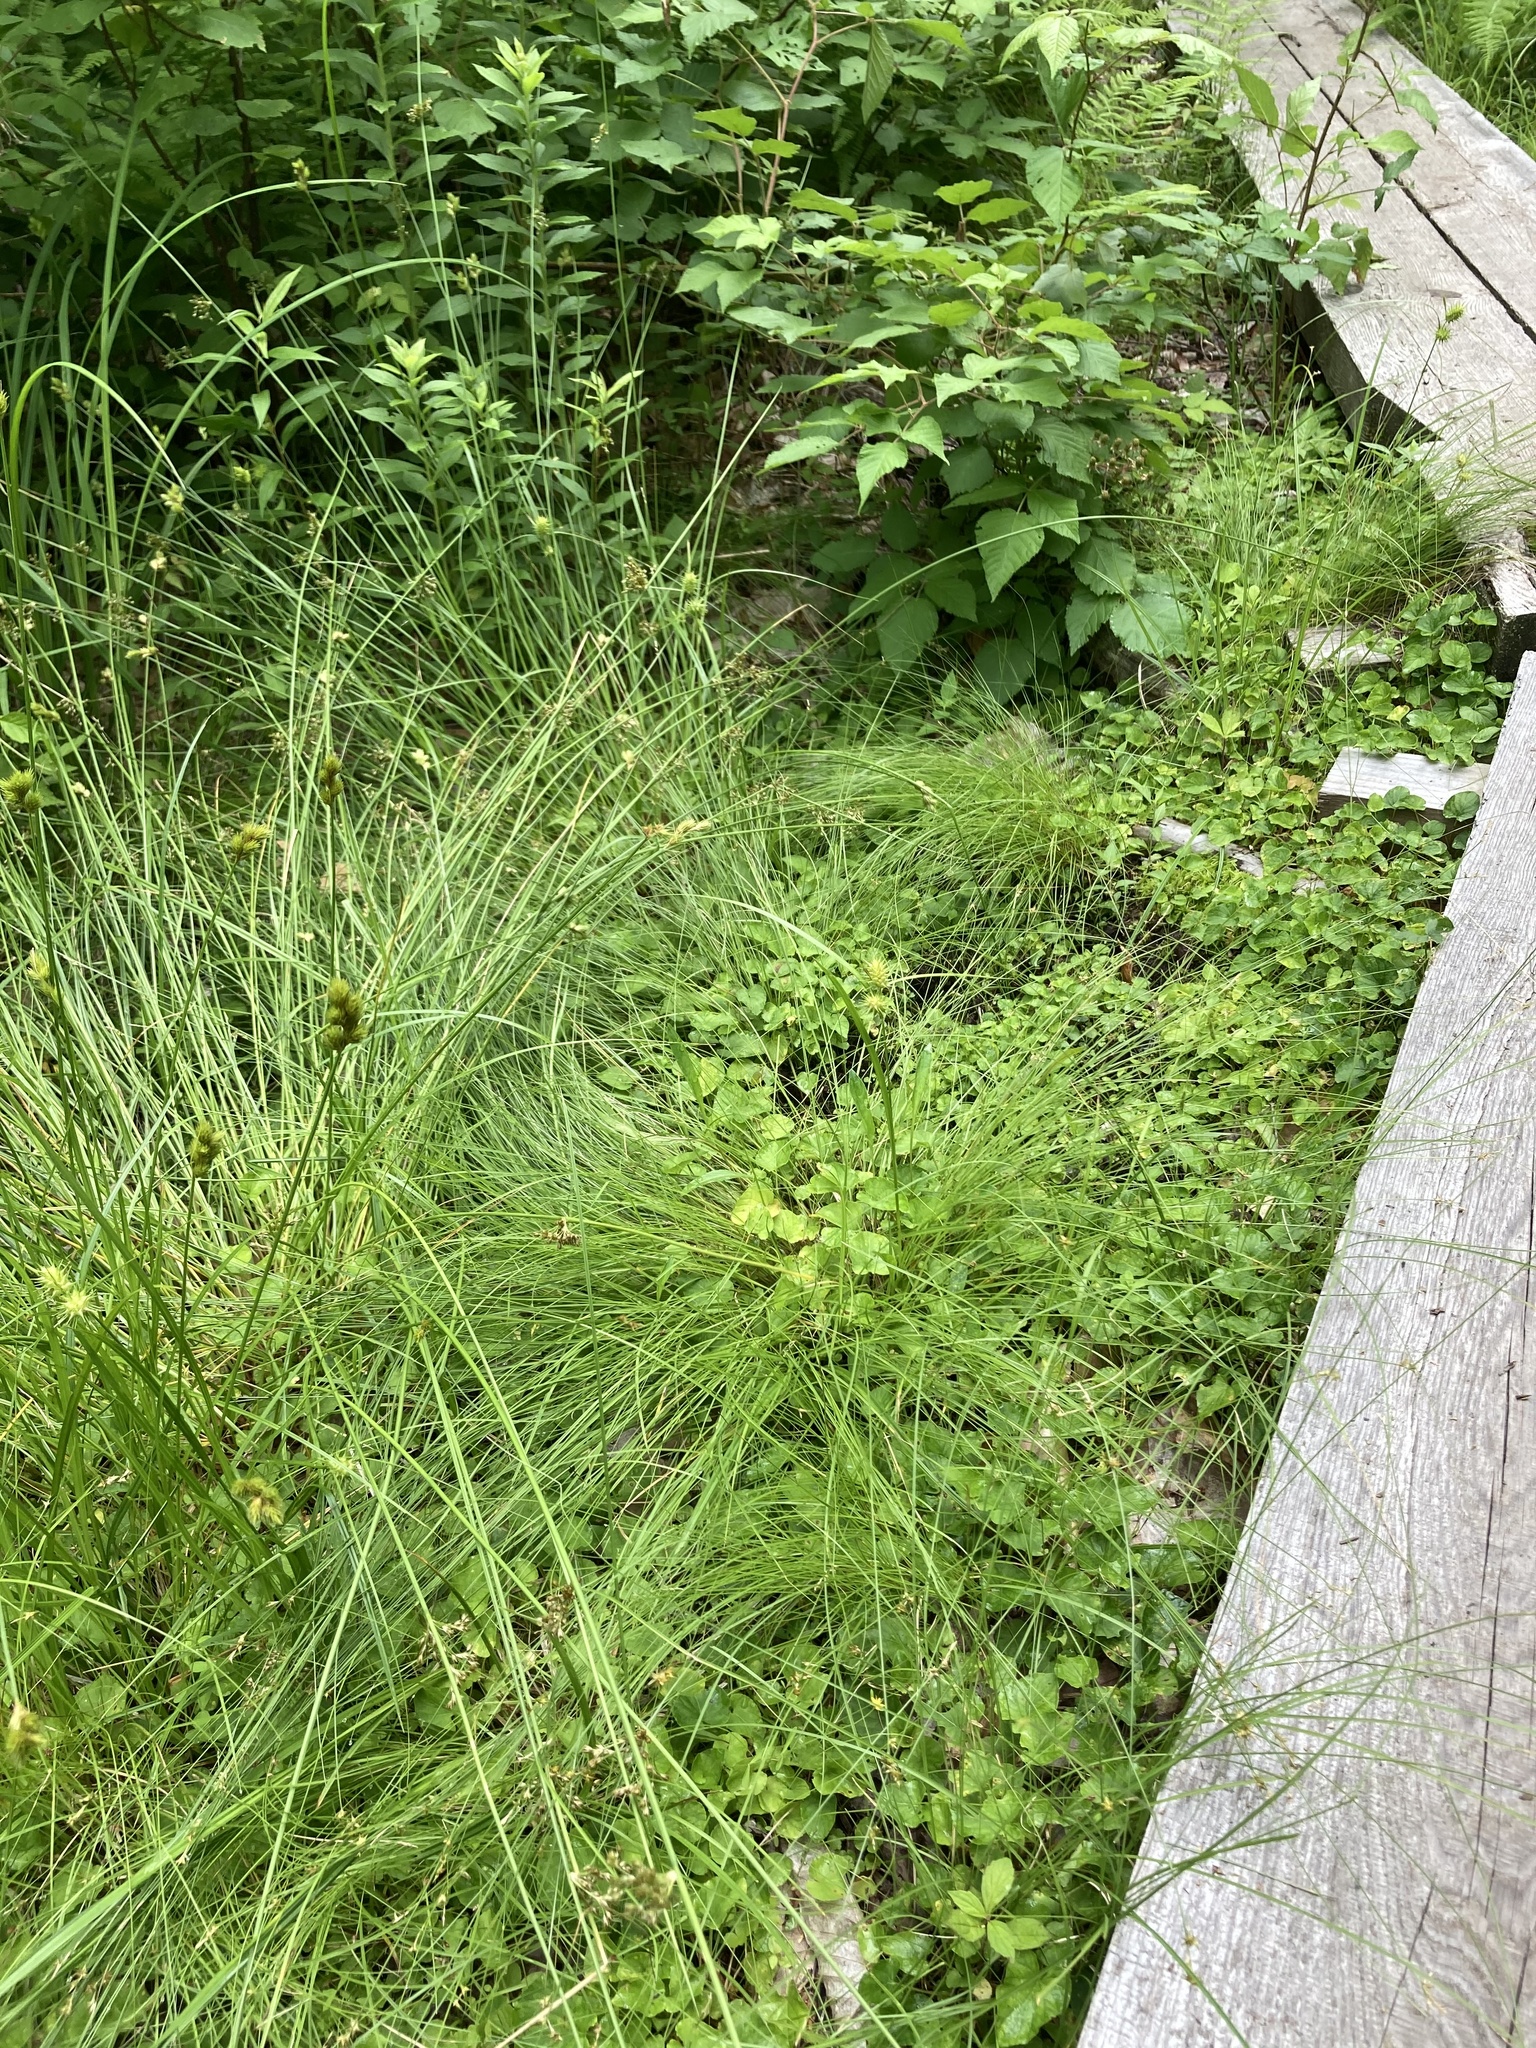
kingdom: Plantae
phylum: Tracheophyta
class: Liliopsida
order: Poales
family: Cyperaceae
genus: Carex
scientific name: Carex lurida
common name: Sallow sedge
